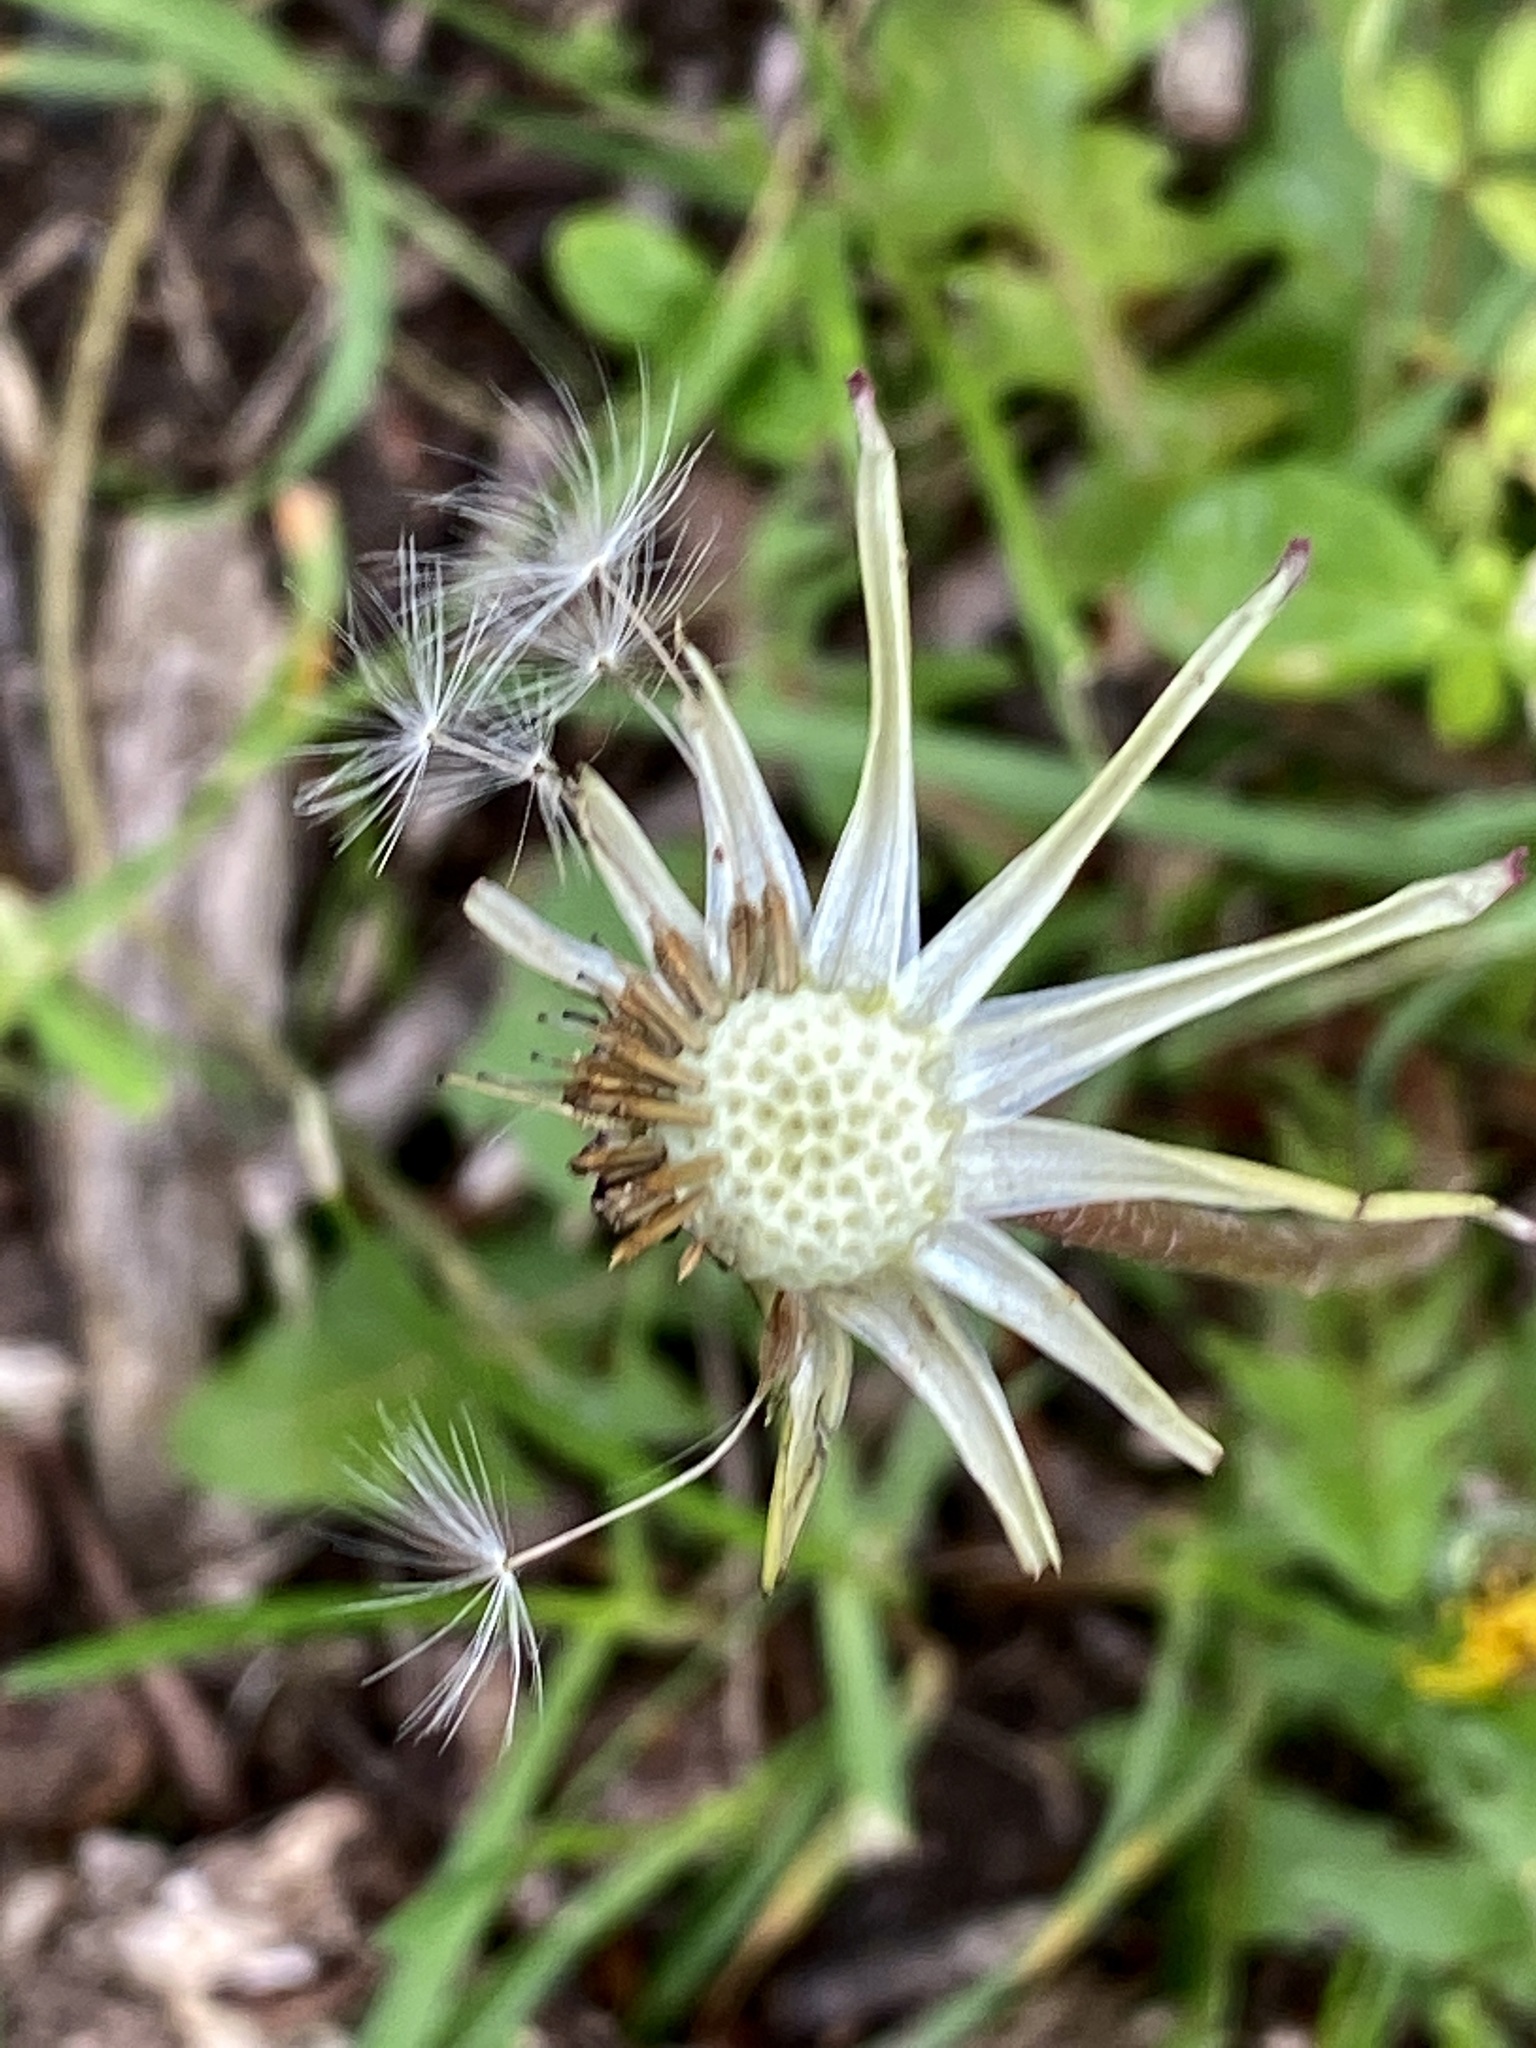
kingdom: Plantae
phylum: Tracheophyta
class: Magnoliopsida
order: Asterales
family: Asteraceae
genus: Taraxacum
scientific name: Taraxacum officinale
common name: Common dandelion
